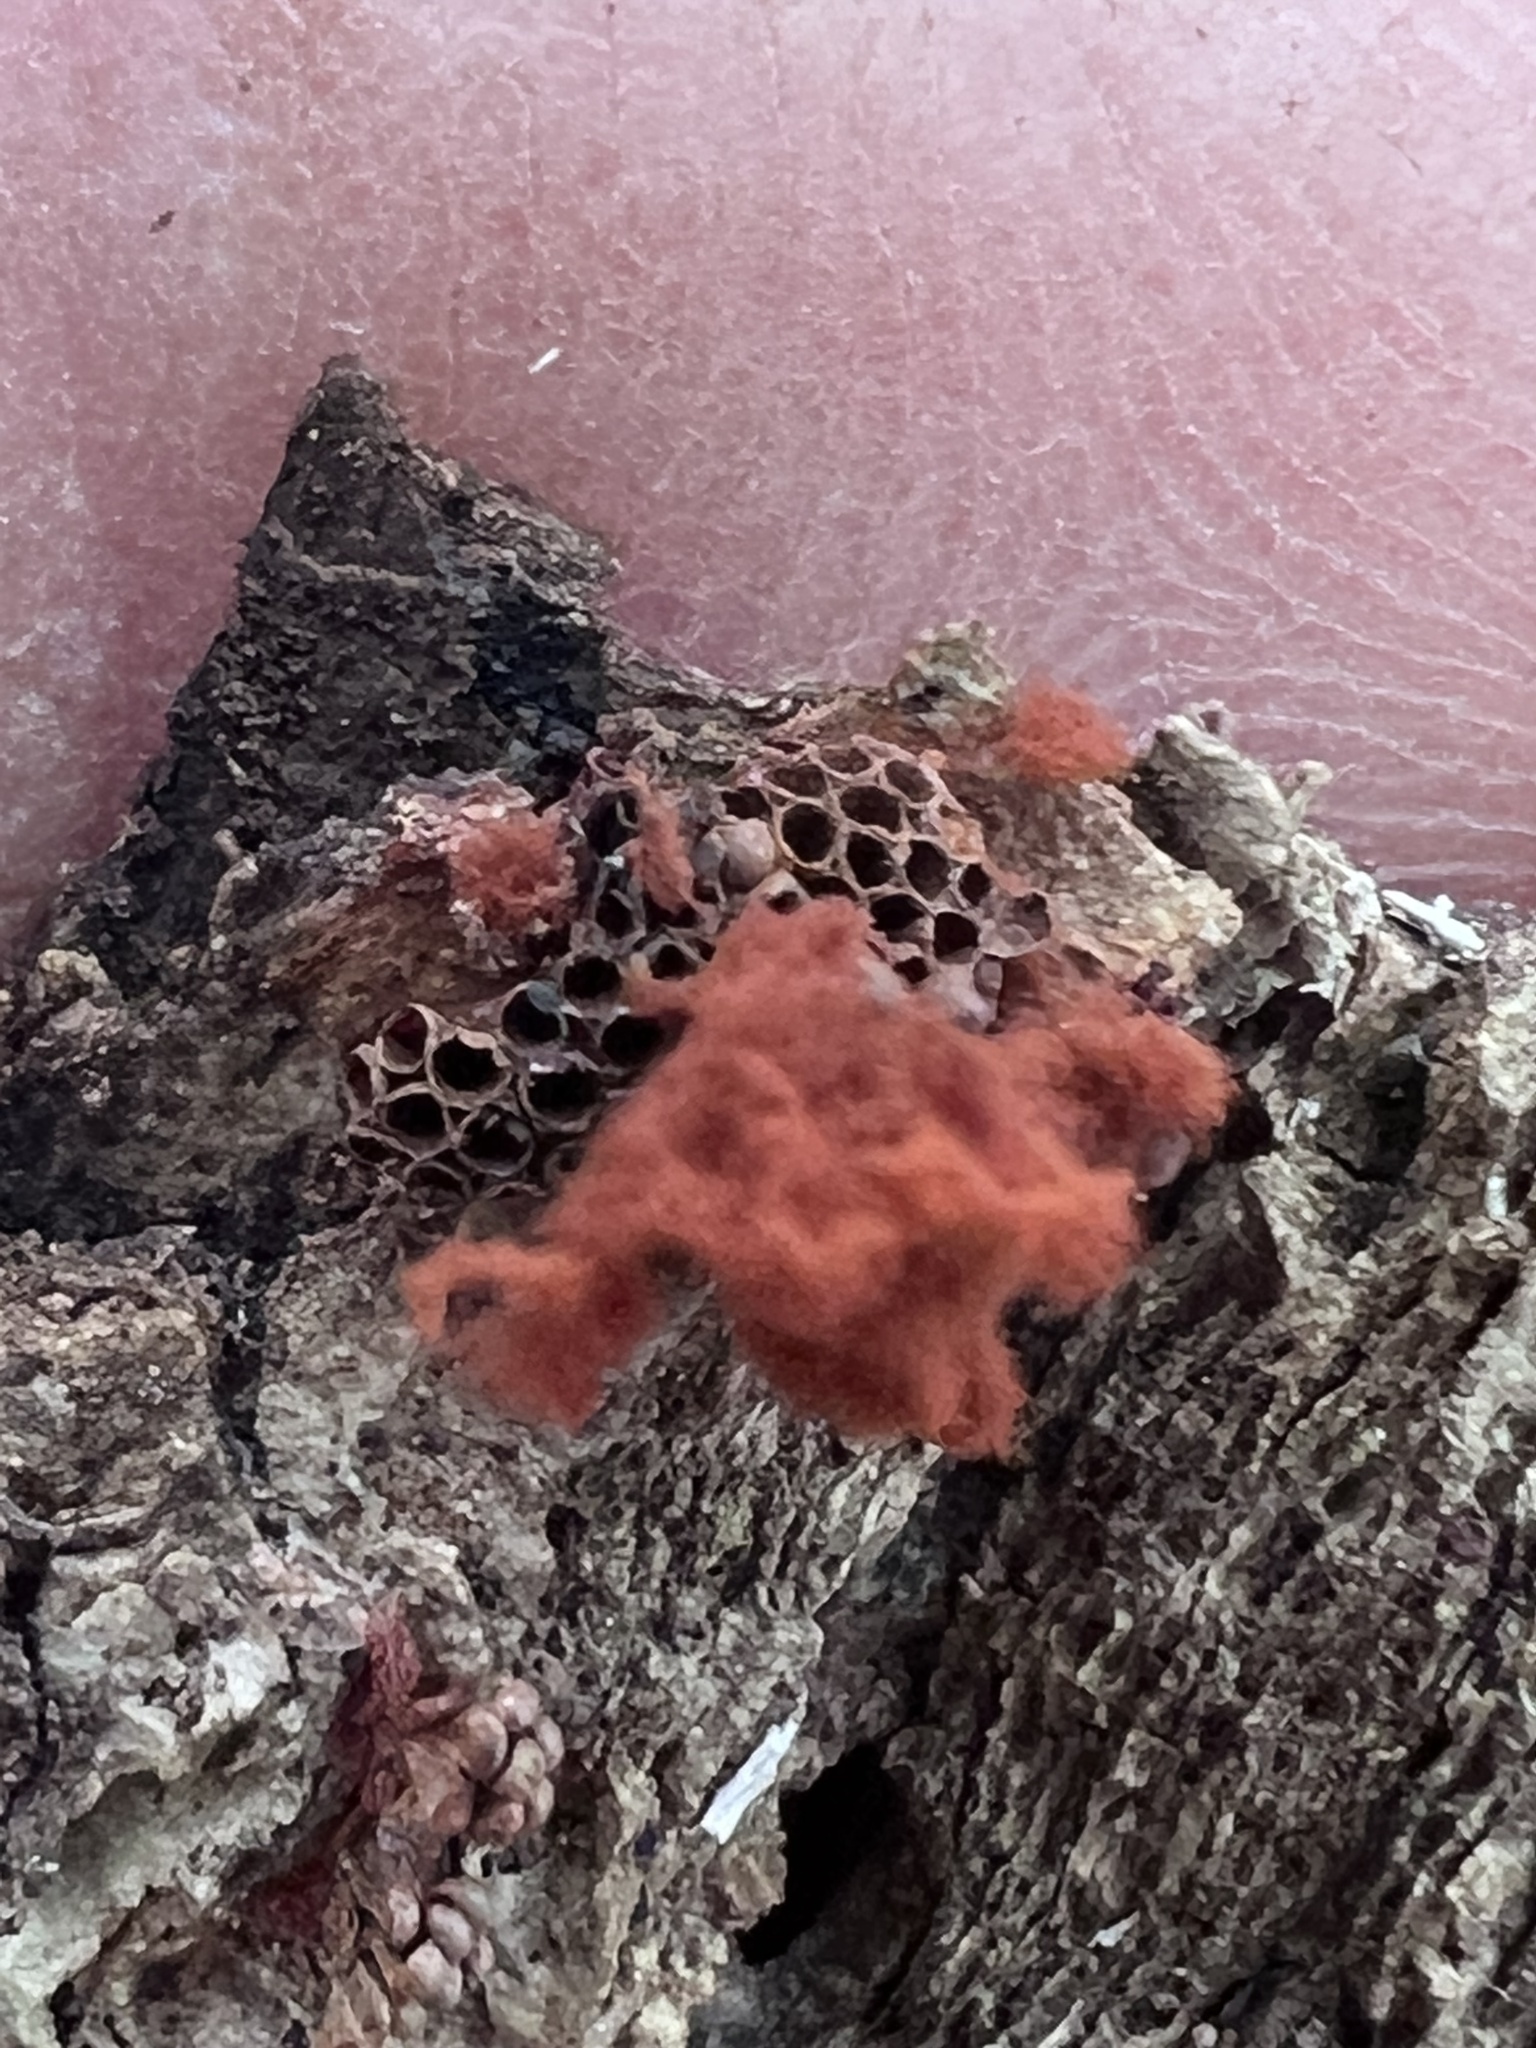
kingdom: Protozoa
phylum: Mycetozoa
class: Myxomycetes
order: Trichiales
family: Trichiaceae
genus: Metatrichia
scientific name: Metatrichia vesparia
